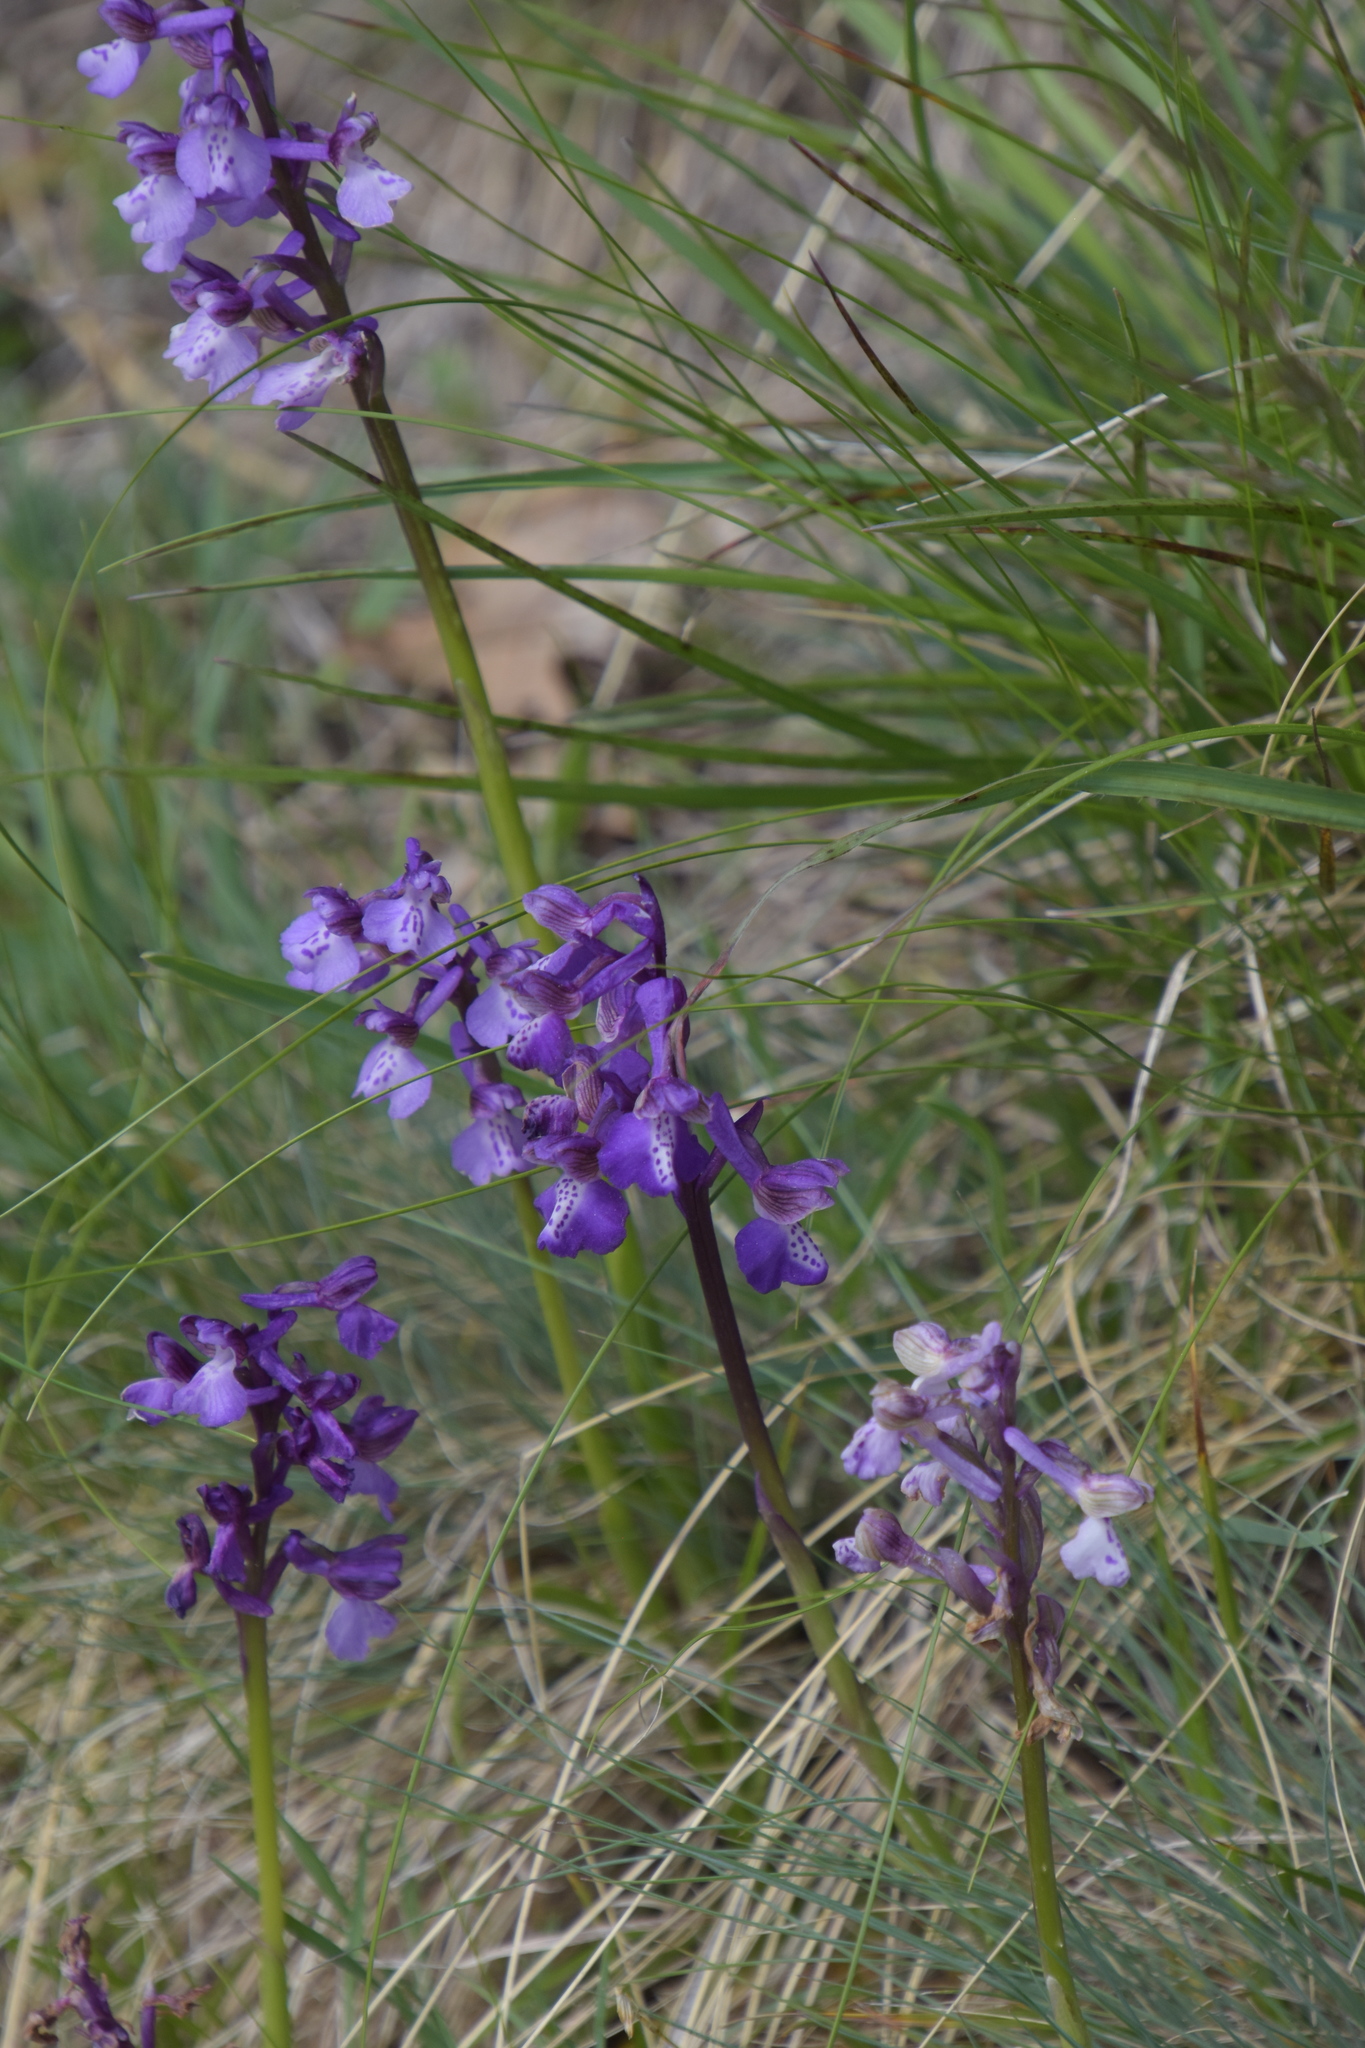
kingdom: Plantae
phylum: Tracheophyta
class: Liliopsida
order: Asparagales
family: Orchidaceae
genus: Anacamptis
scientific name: Anacamptis morio
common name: Green-winged orchid
